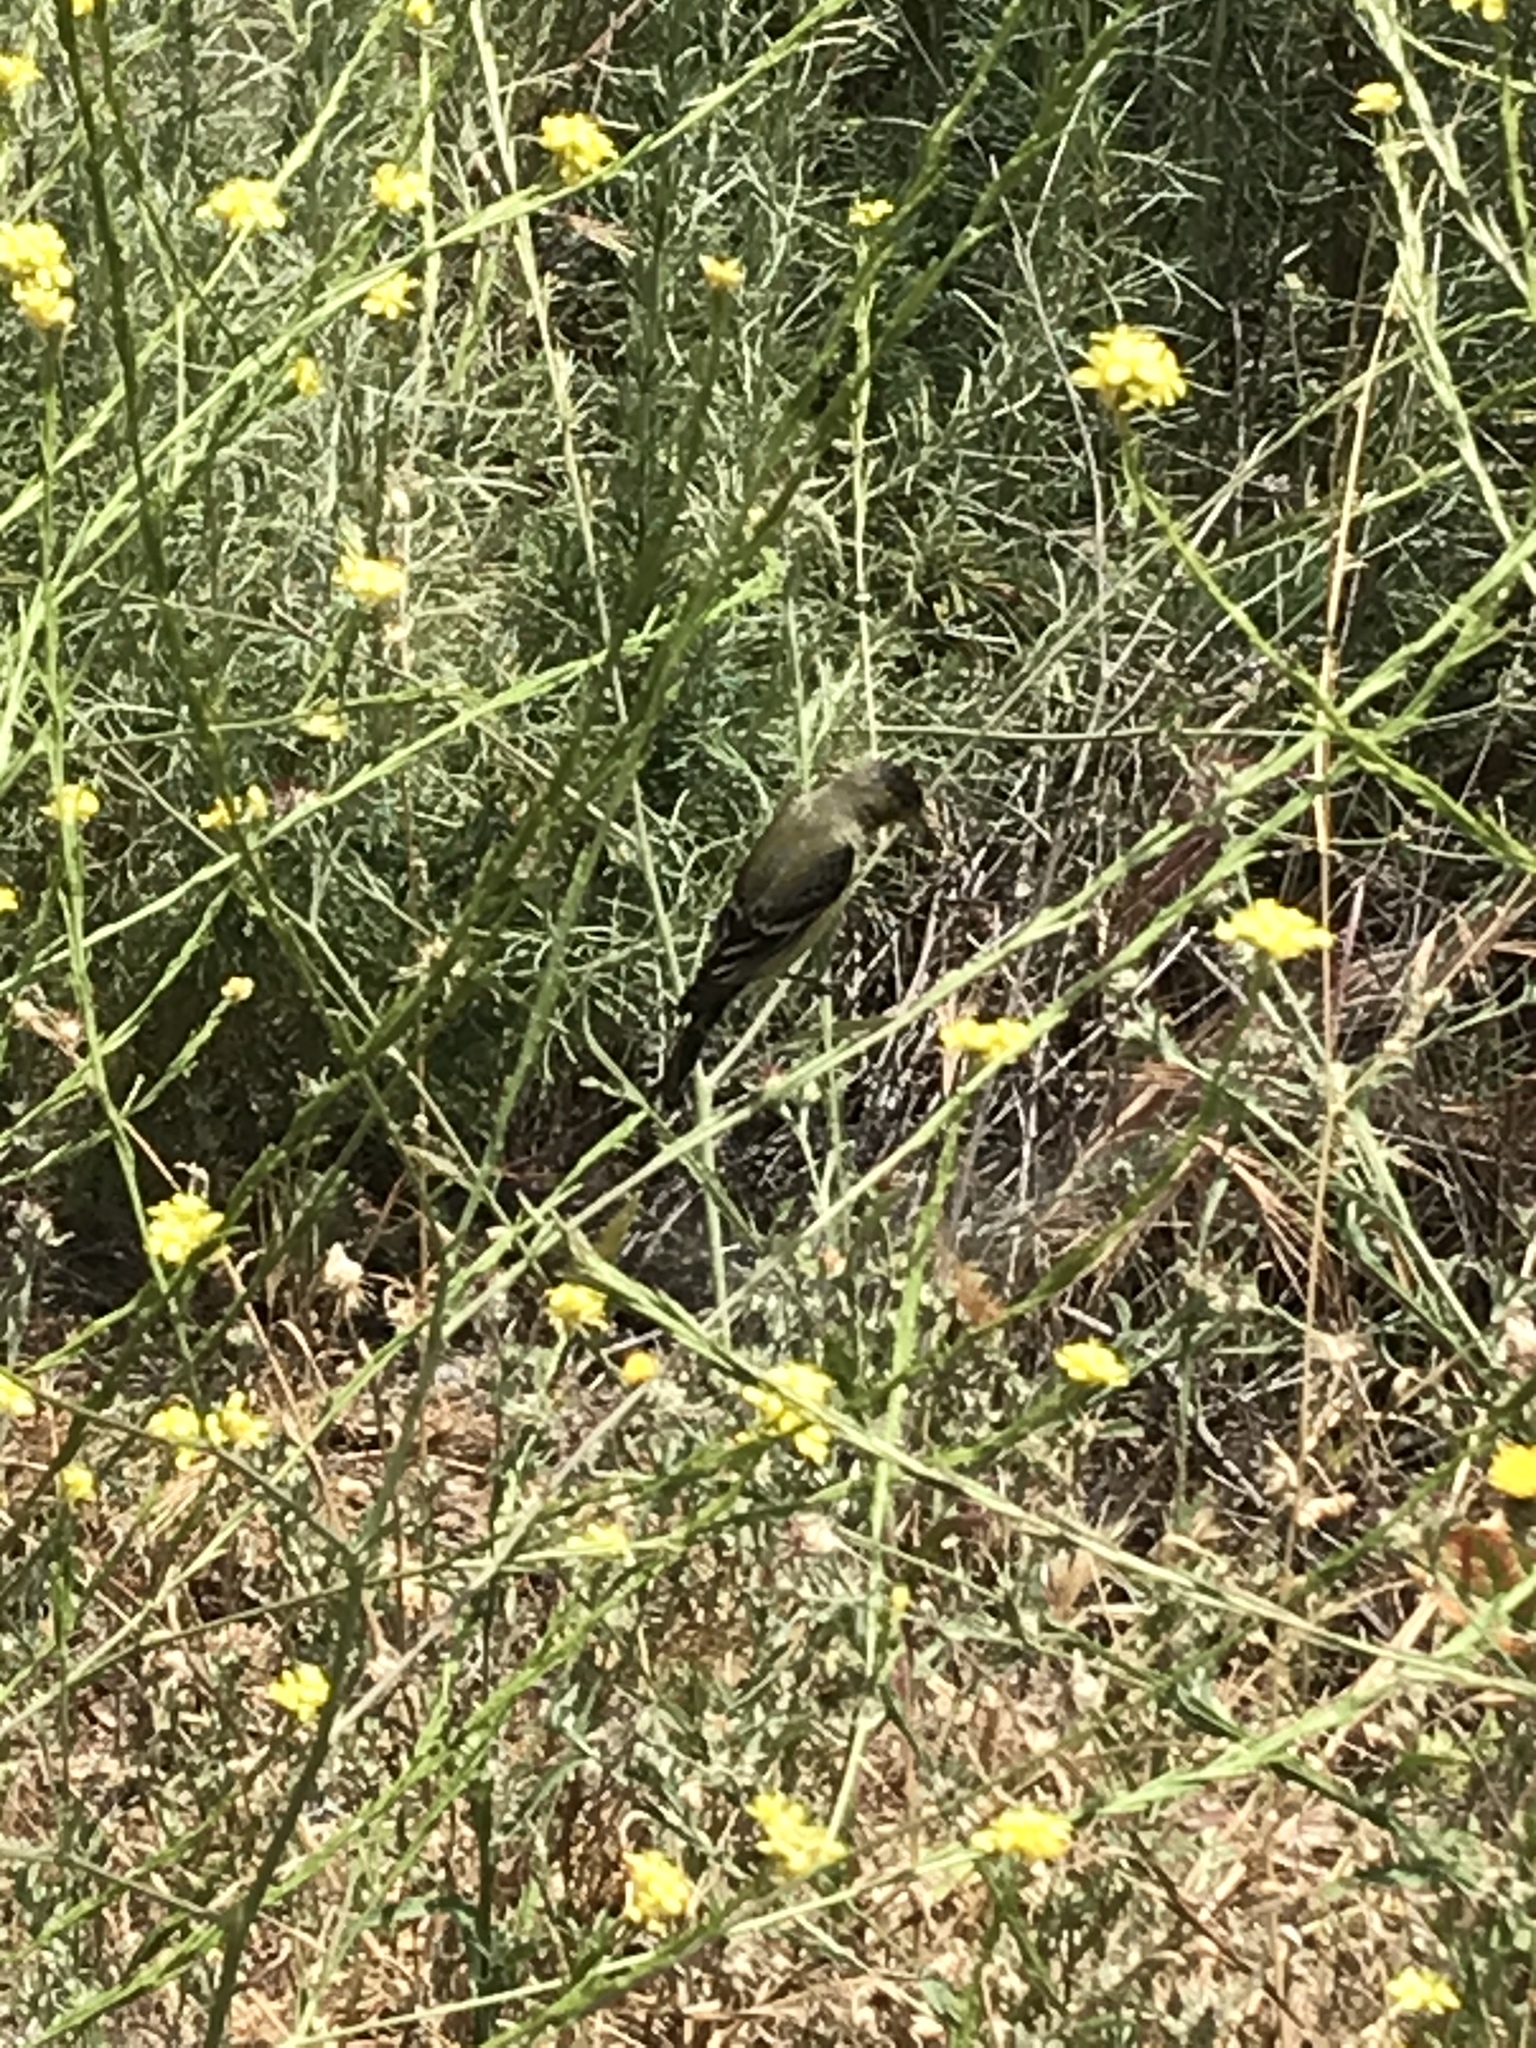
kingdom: Animalia
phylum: Chordata
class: Aves
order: Passeriformes
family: Fringillidae
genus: Spinus
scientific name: Spinus psaltria
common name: Lesser goldfinch
